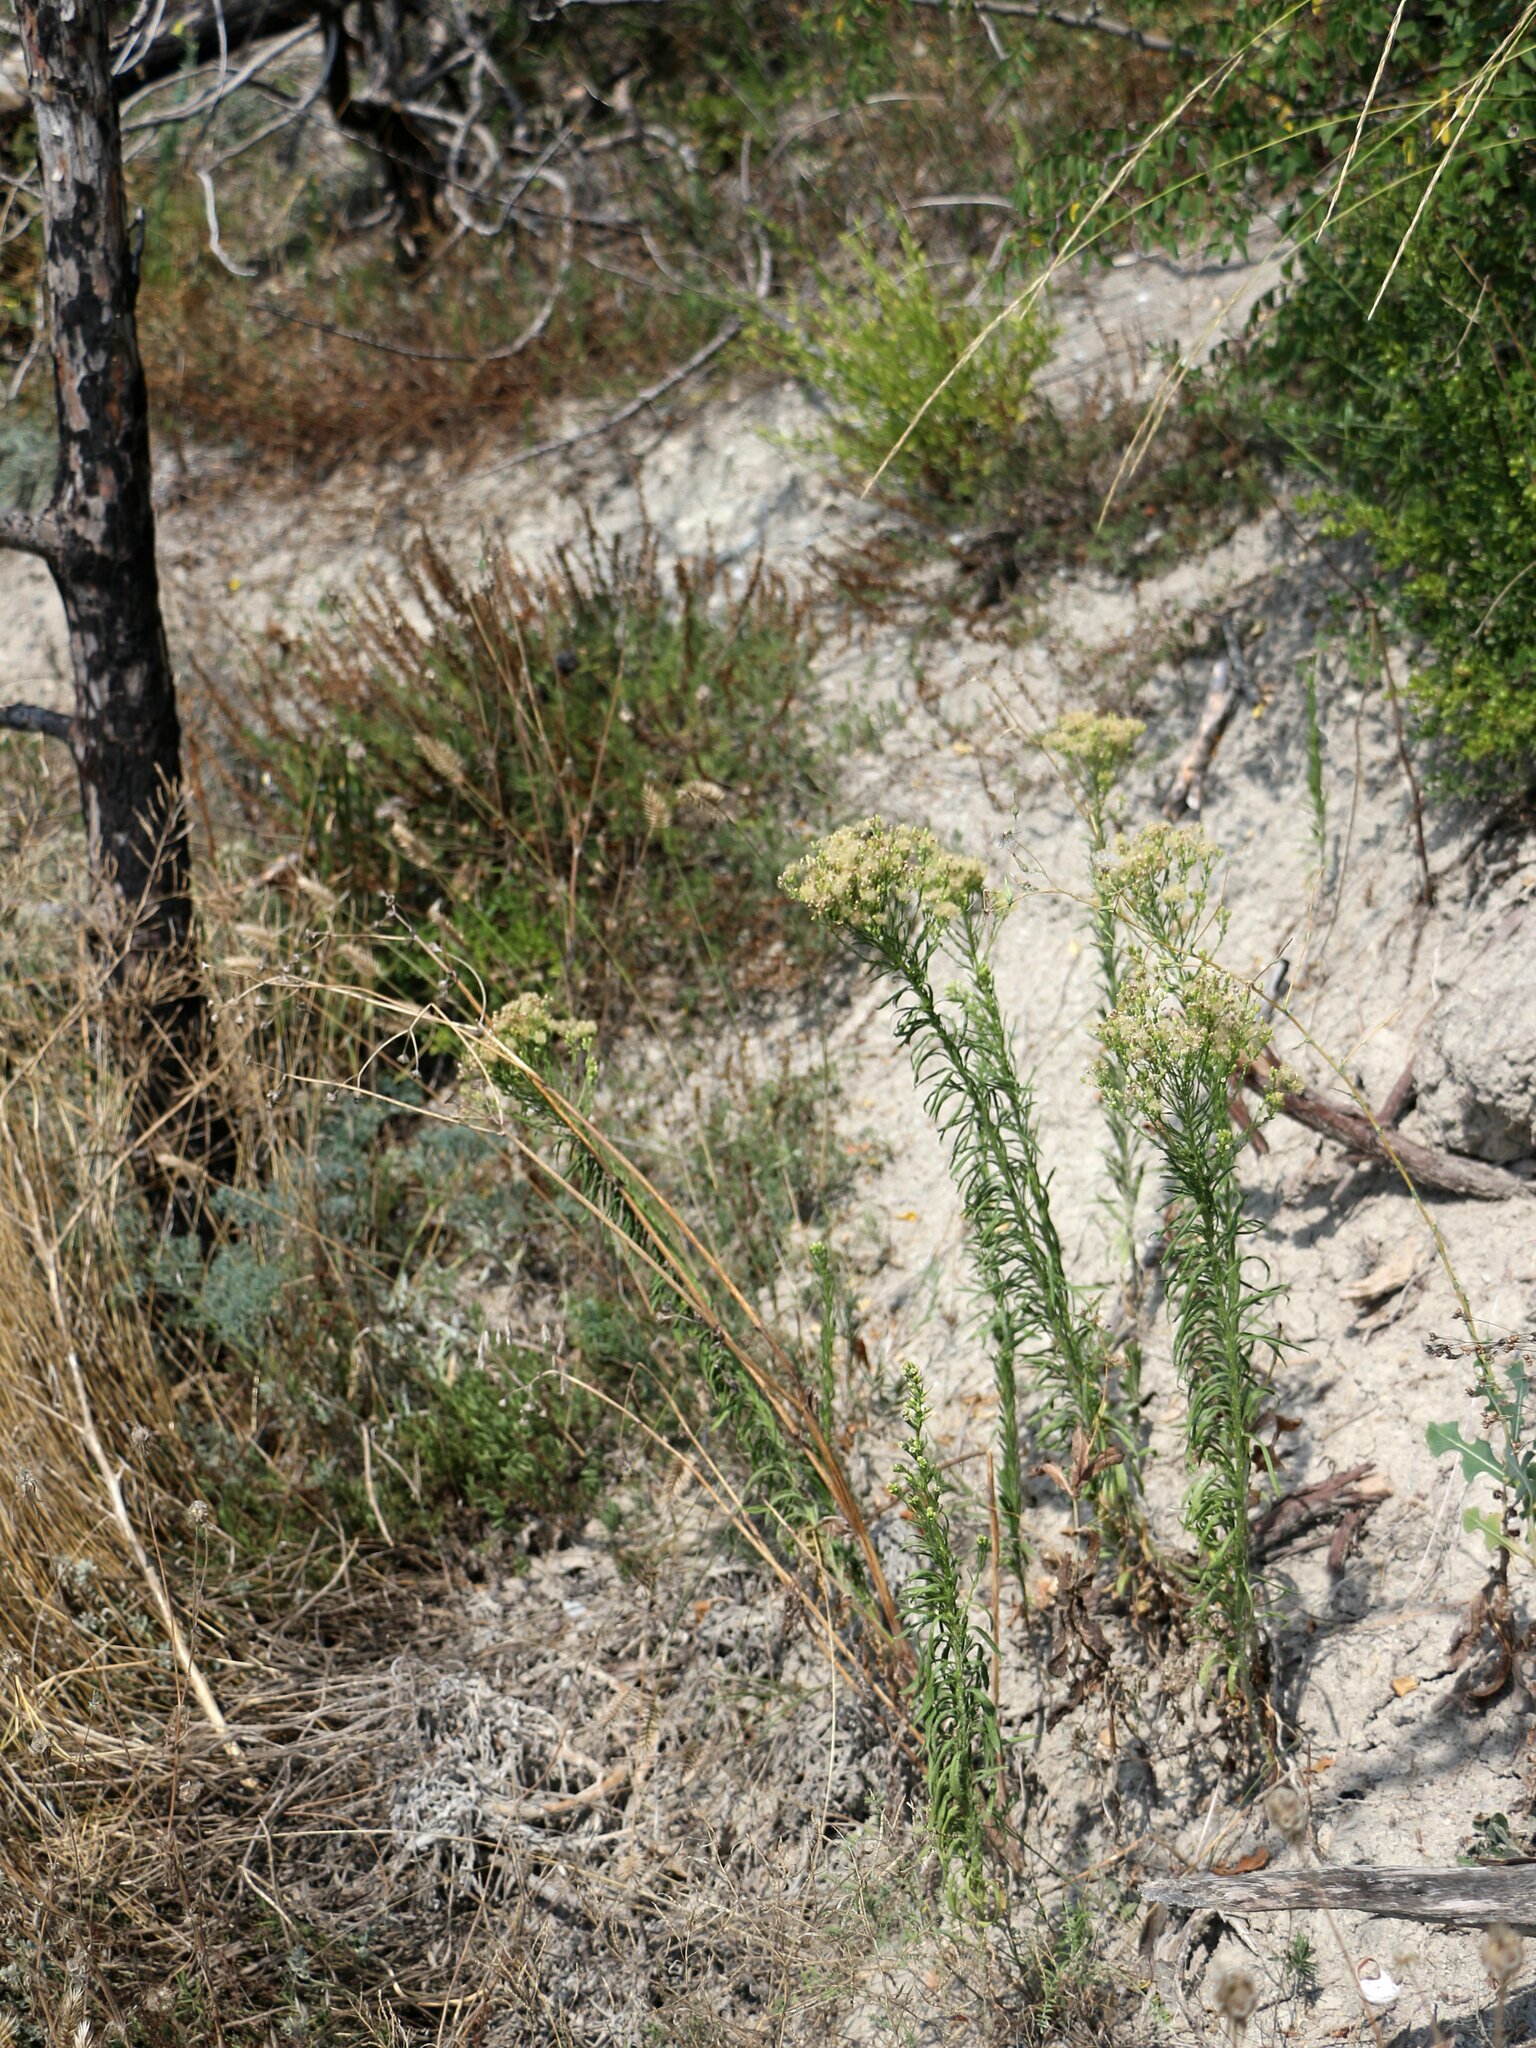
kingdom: Plantae
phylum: Tracheophyta
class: Magnoliopsida
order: Asterales
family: Asteraceae
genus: Erigeron
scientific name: Erigeron canadensis
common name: Canadian fleabane
